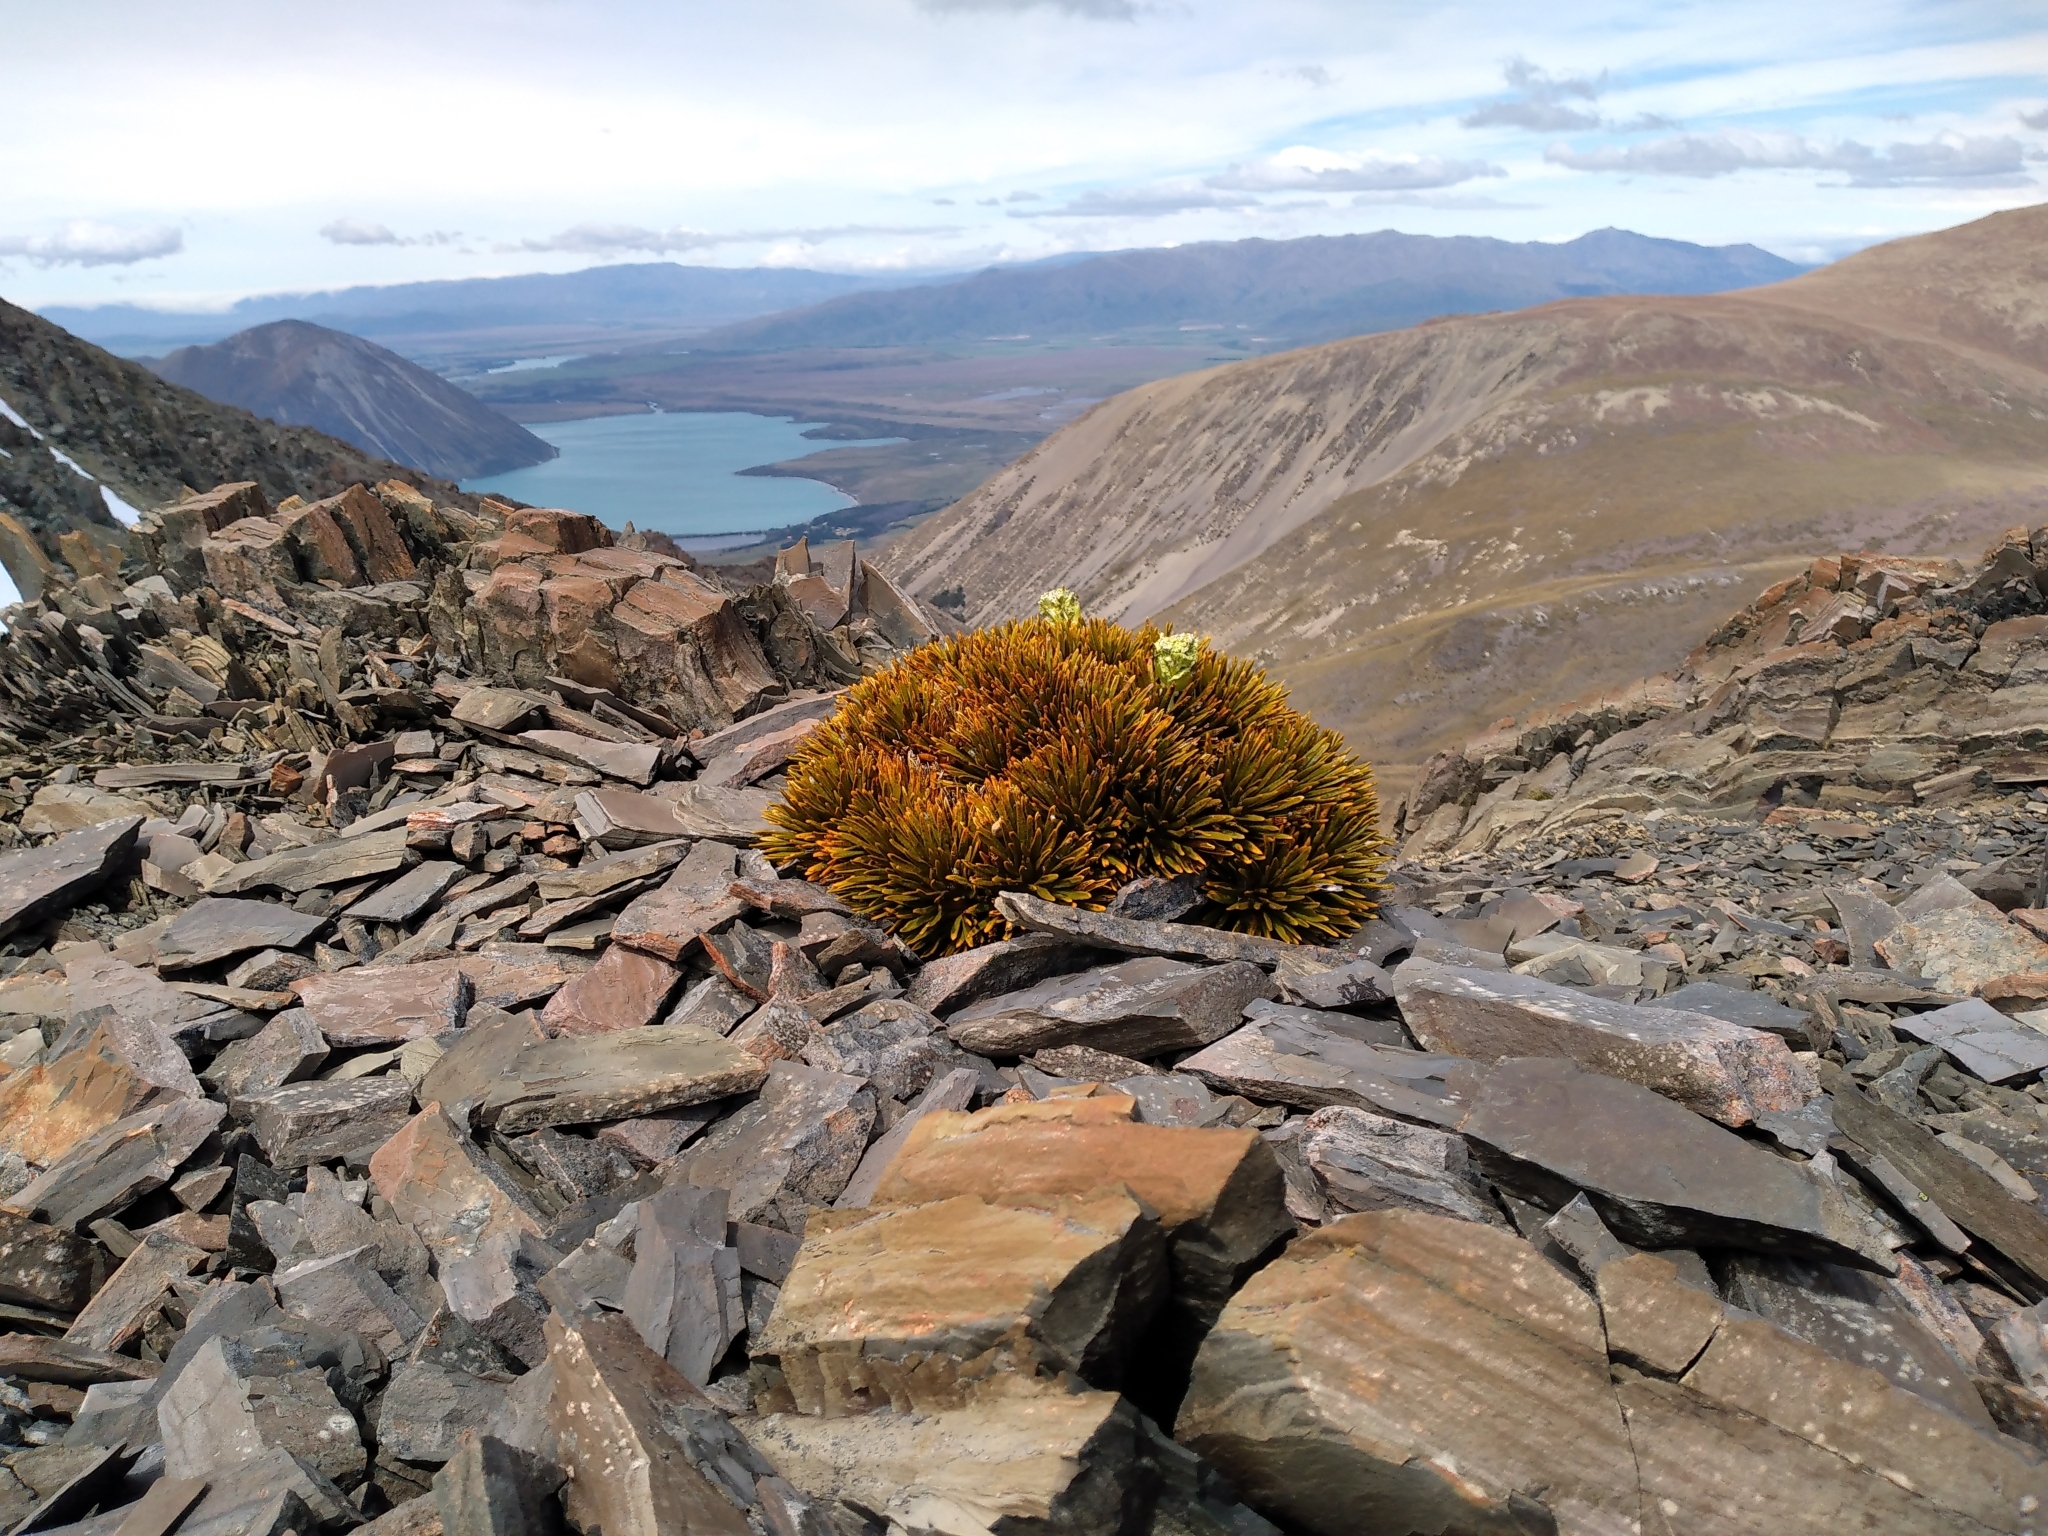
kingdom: Plantae
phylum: Tracheophyta
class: Magnoliopsida
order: Apiales
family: Apiaceae
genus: Aciphylla
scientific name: Aciphylla dobsonii
